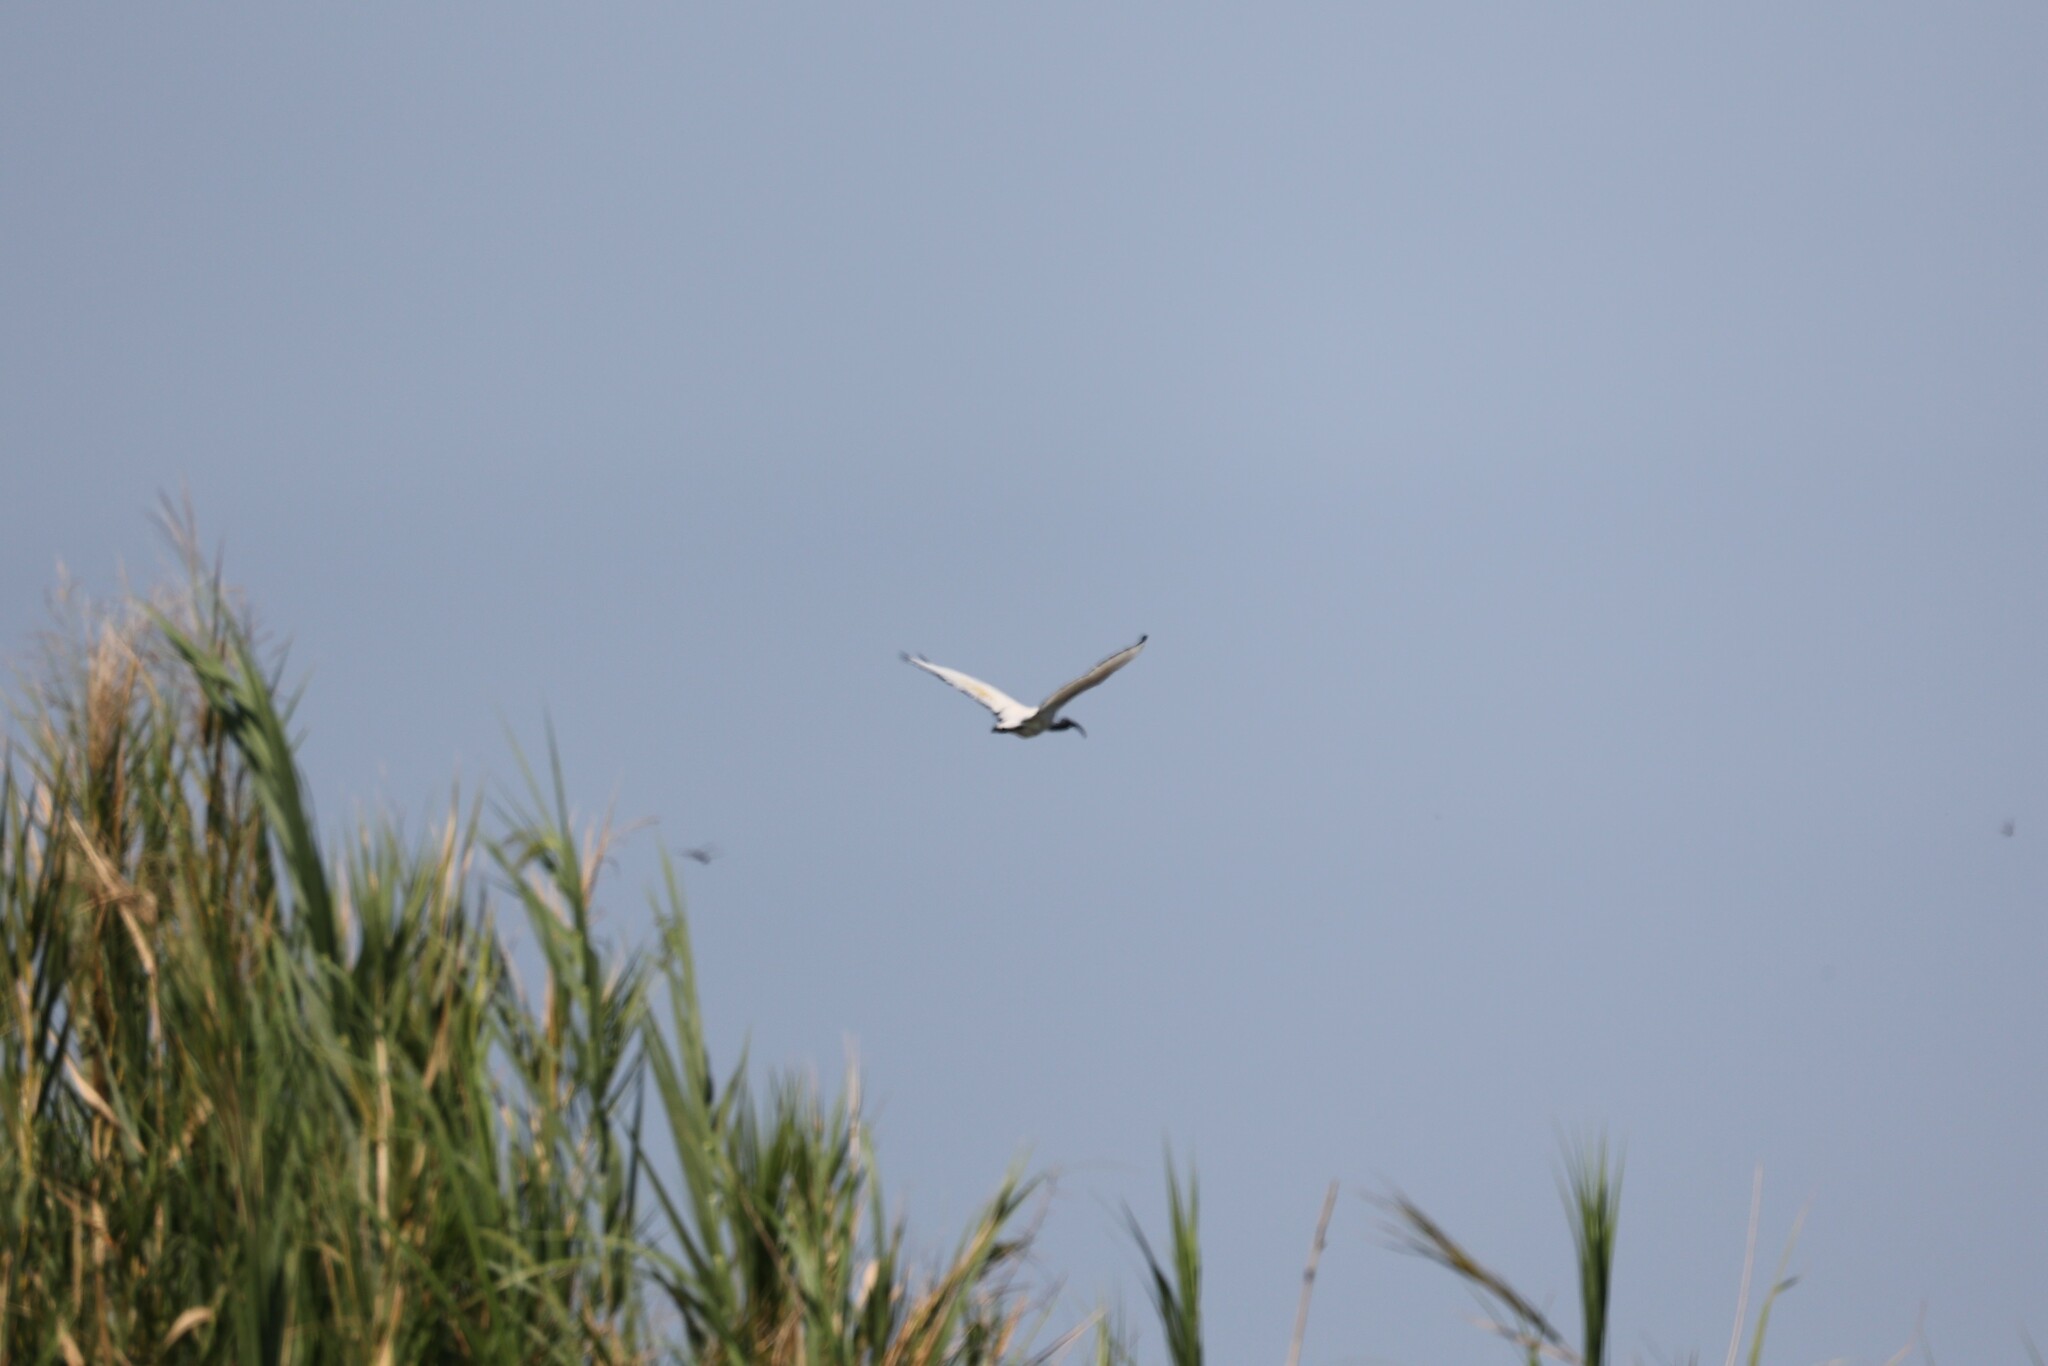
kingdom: Animalia
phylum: Chordata
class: Aves
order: Pelecaniformes
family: Threskiornithidae
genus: Threskiornis
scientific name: Threskiornis aethiopicus
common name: Sacred ibis
